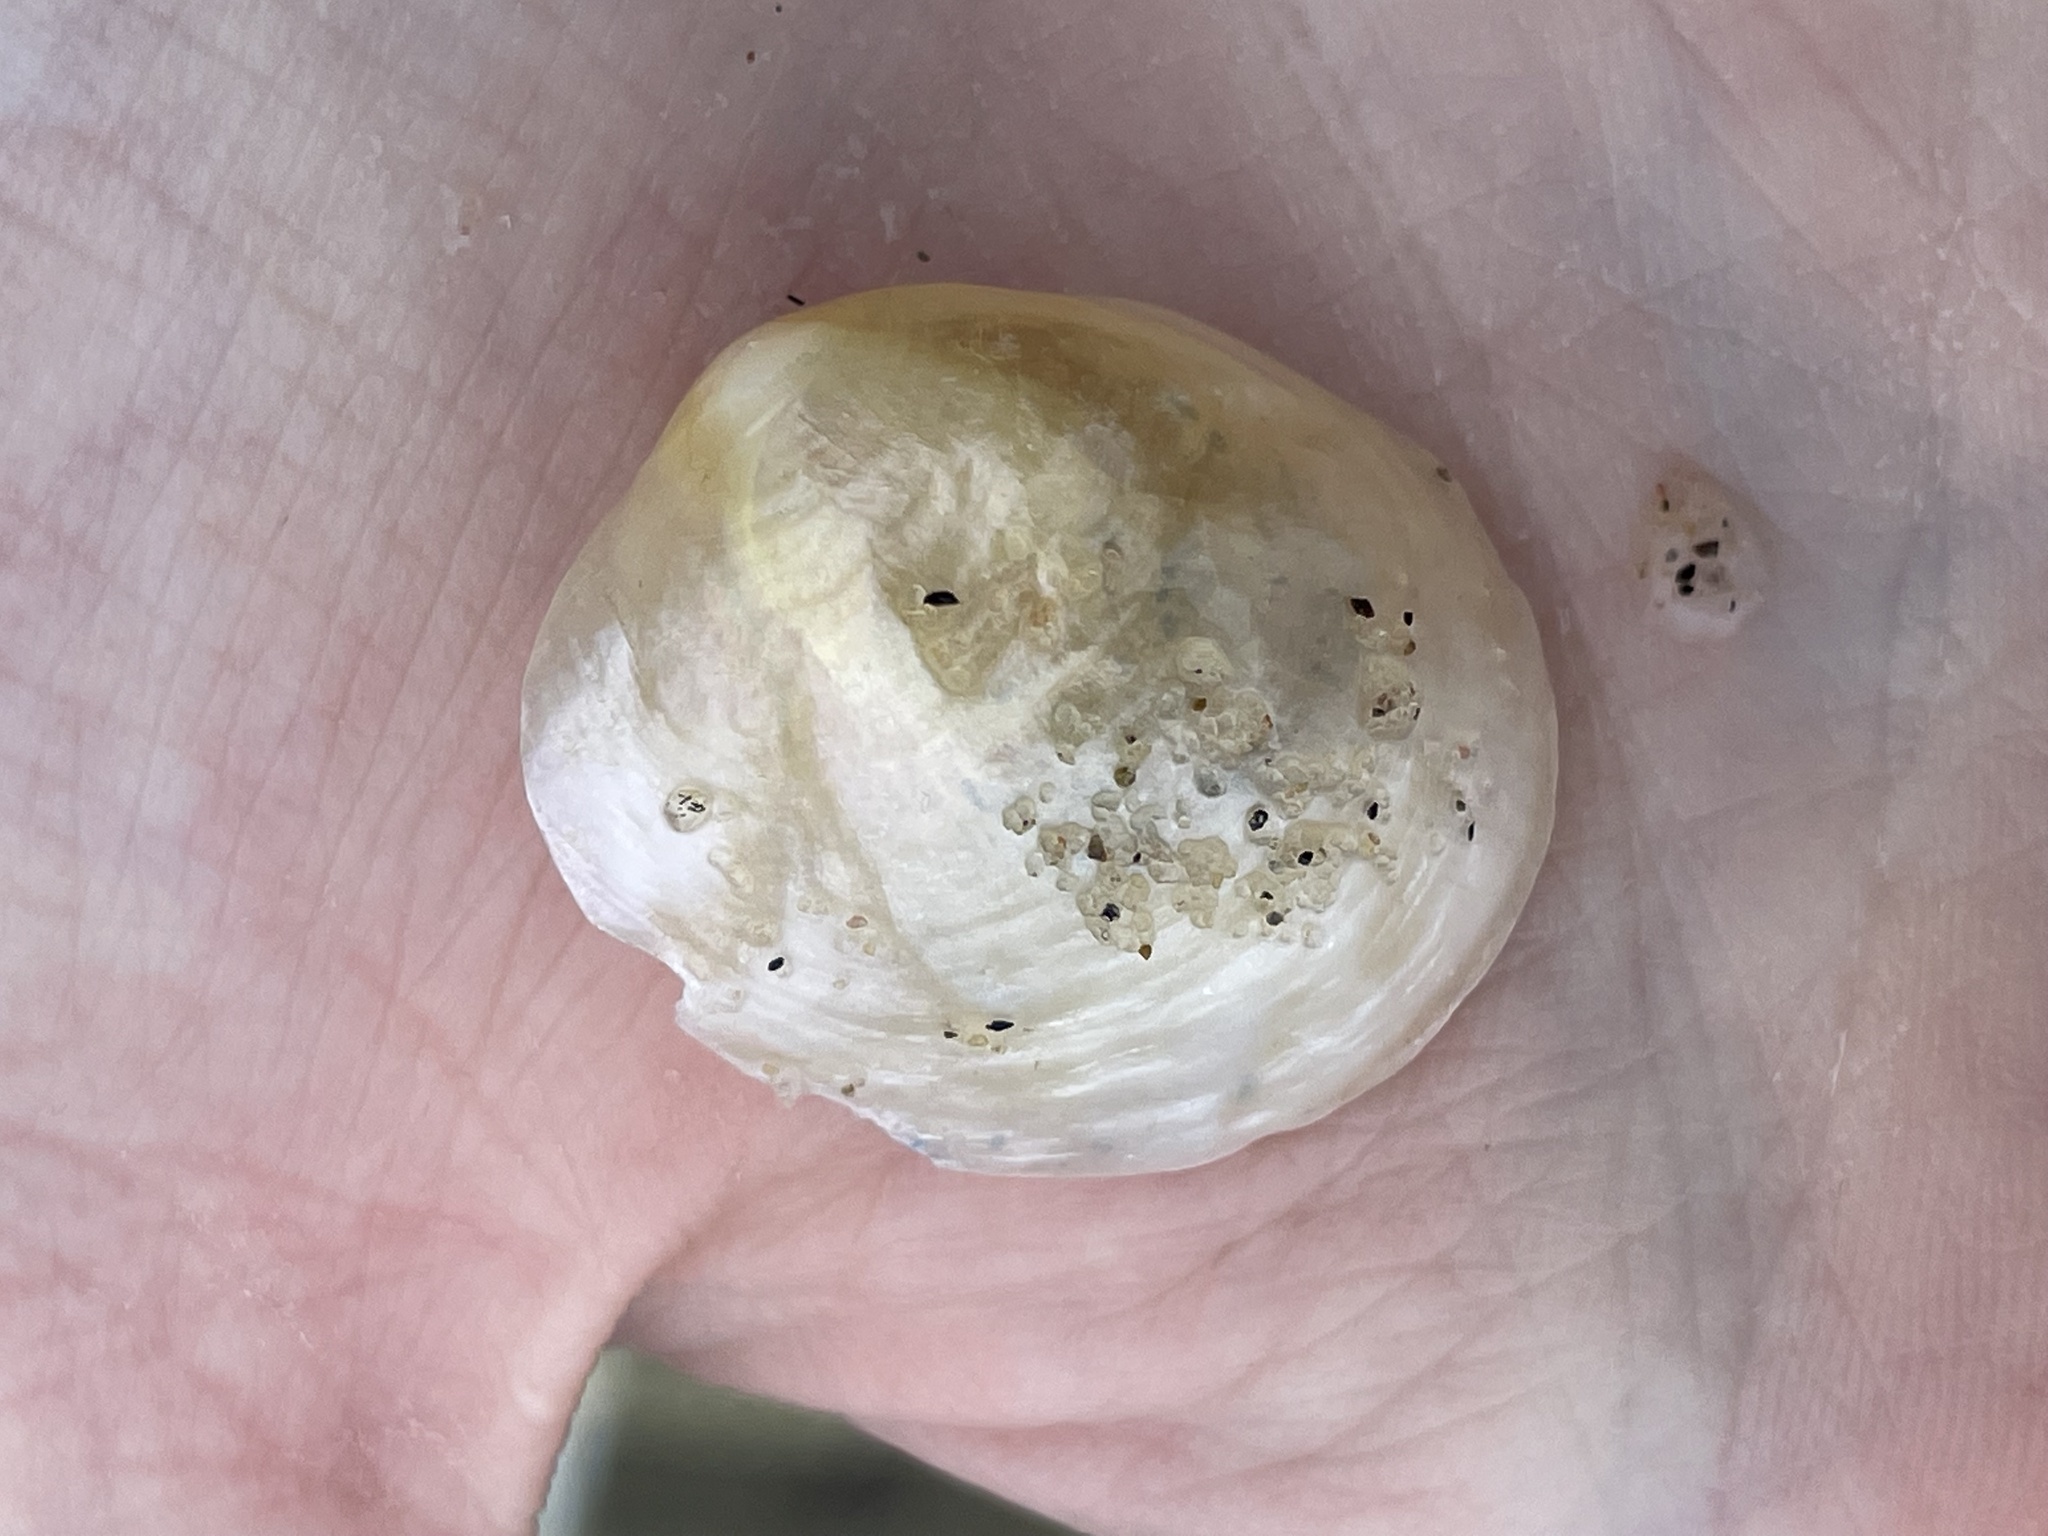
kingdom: Animalia
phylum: Mollusca
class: Bivalvia
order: Pectinida
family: Anomiidae
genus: Anomia
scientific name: Anomia simplex
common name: Common jingle shell
